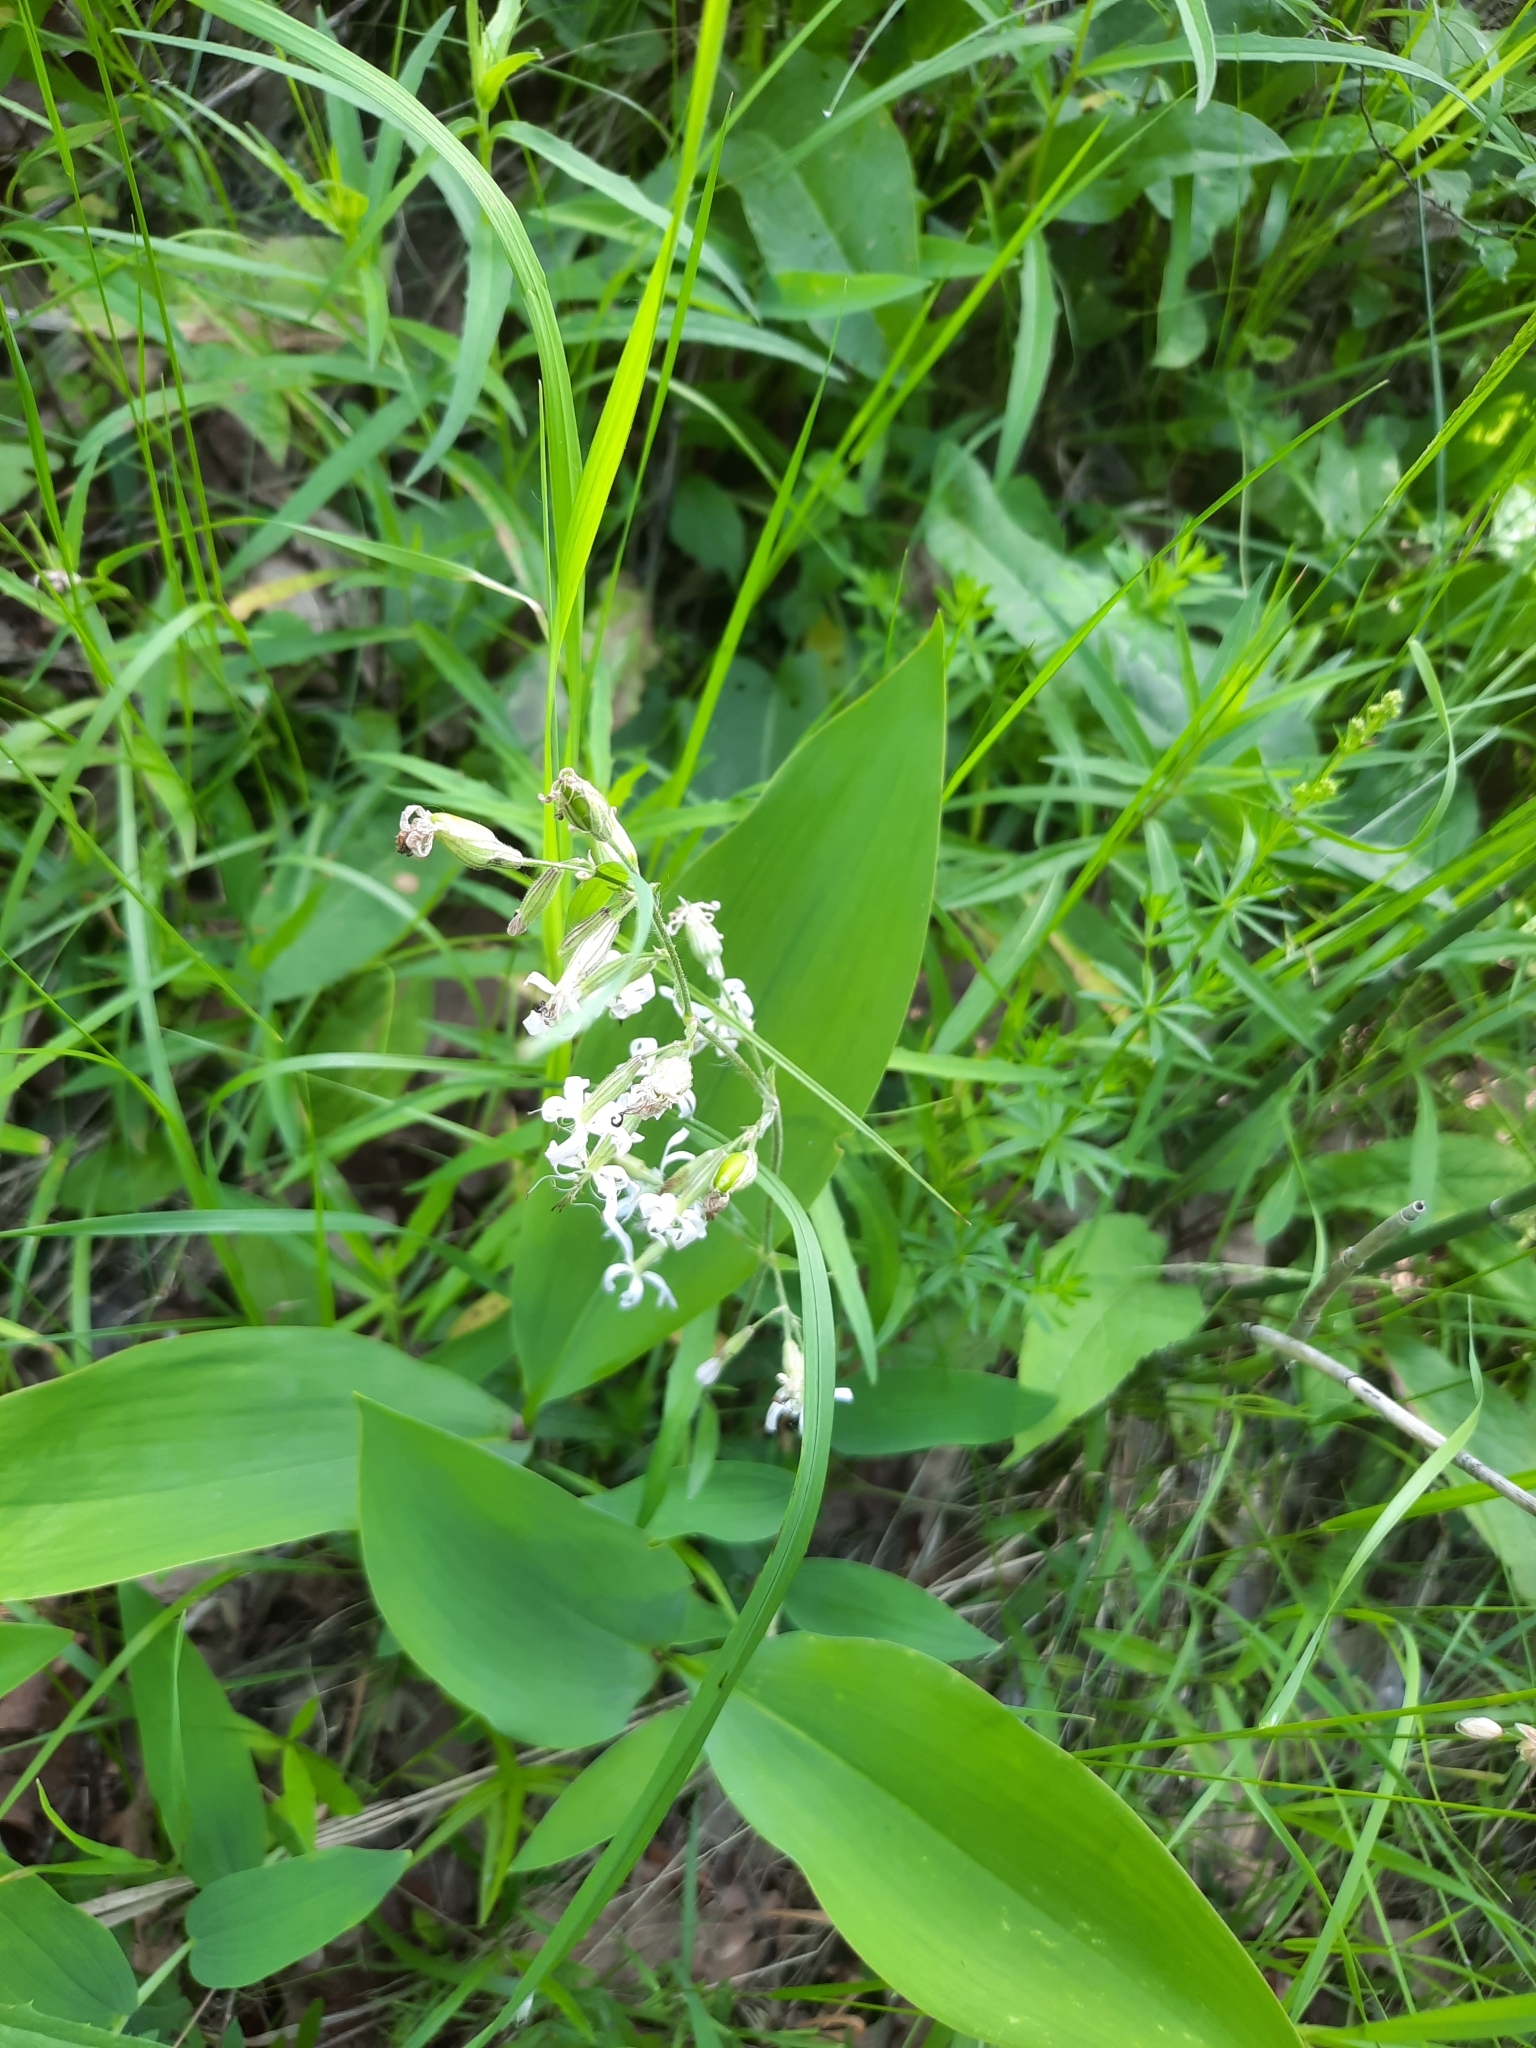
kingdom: Plantae
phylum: Tracheophyta
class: Magnoliopsida
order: Caryophyllales
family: Caryophyllaceae
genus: Silene
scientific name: Silene nutans
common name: Nottingham catchfly
